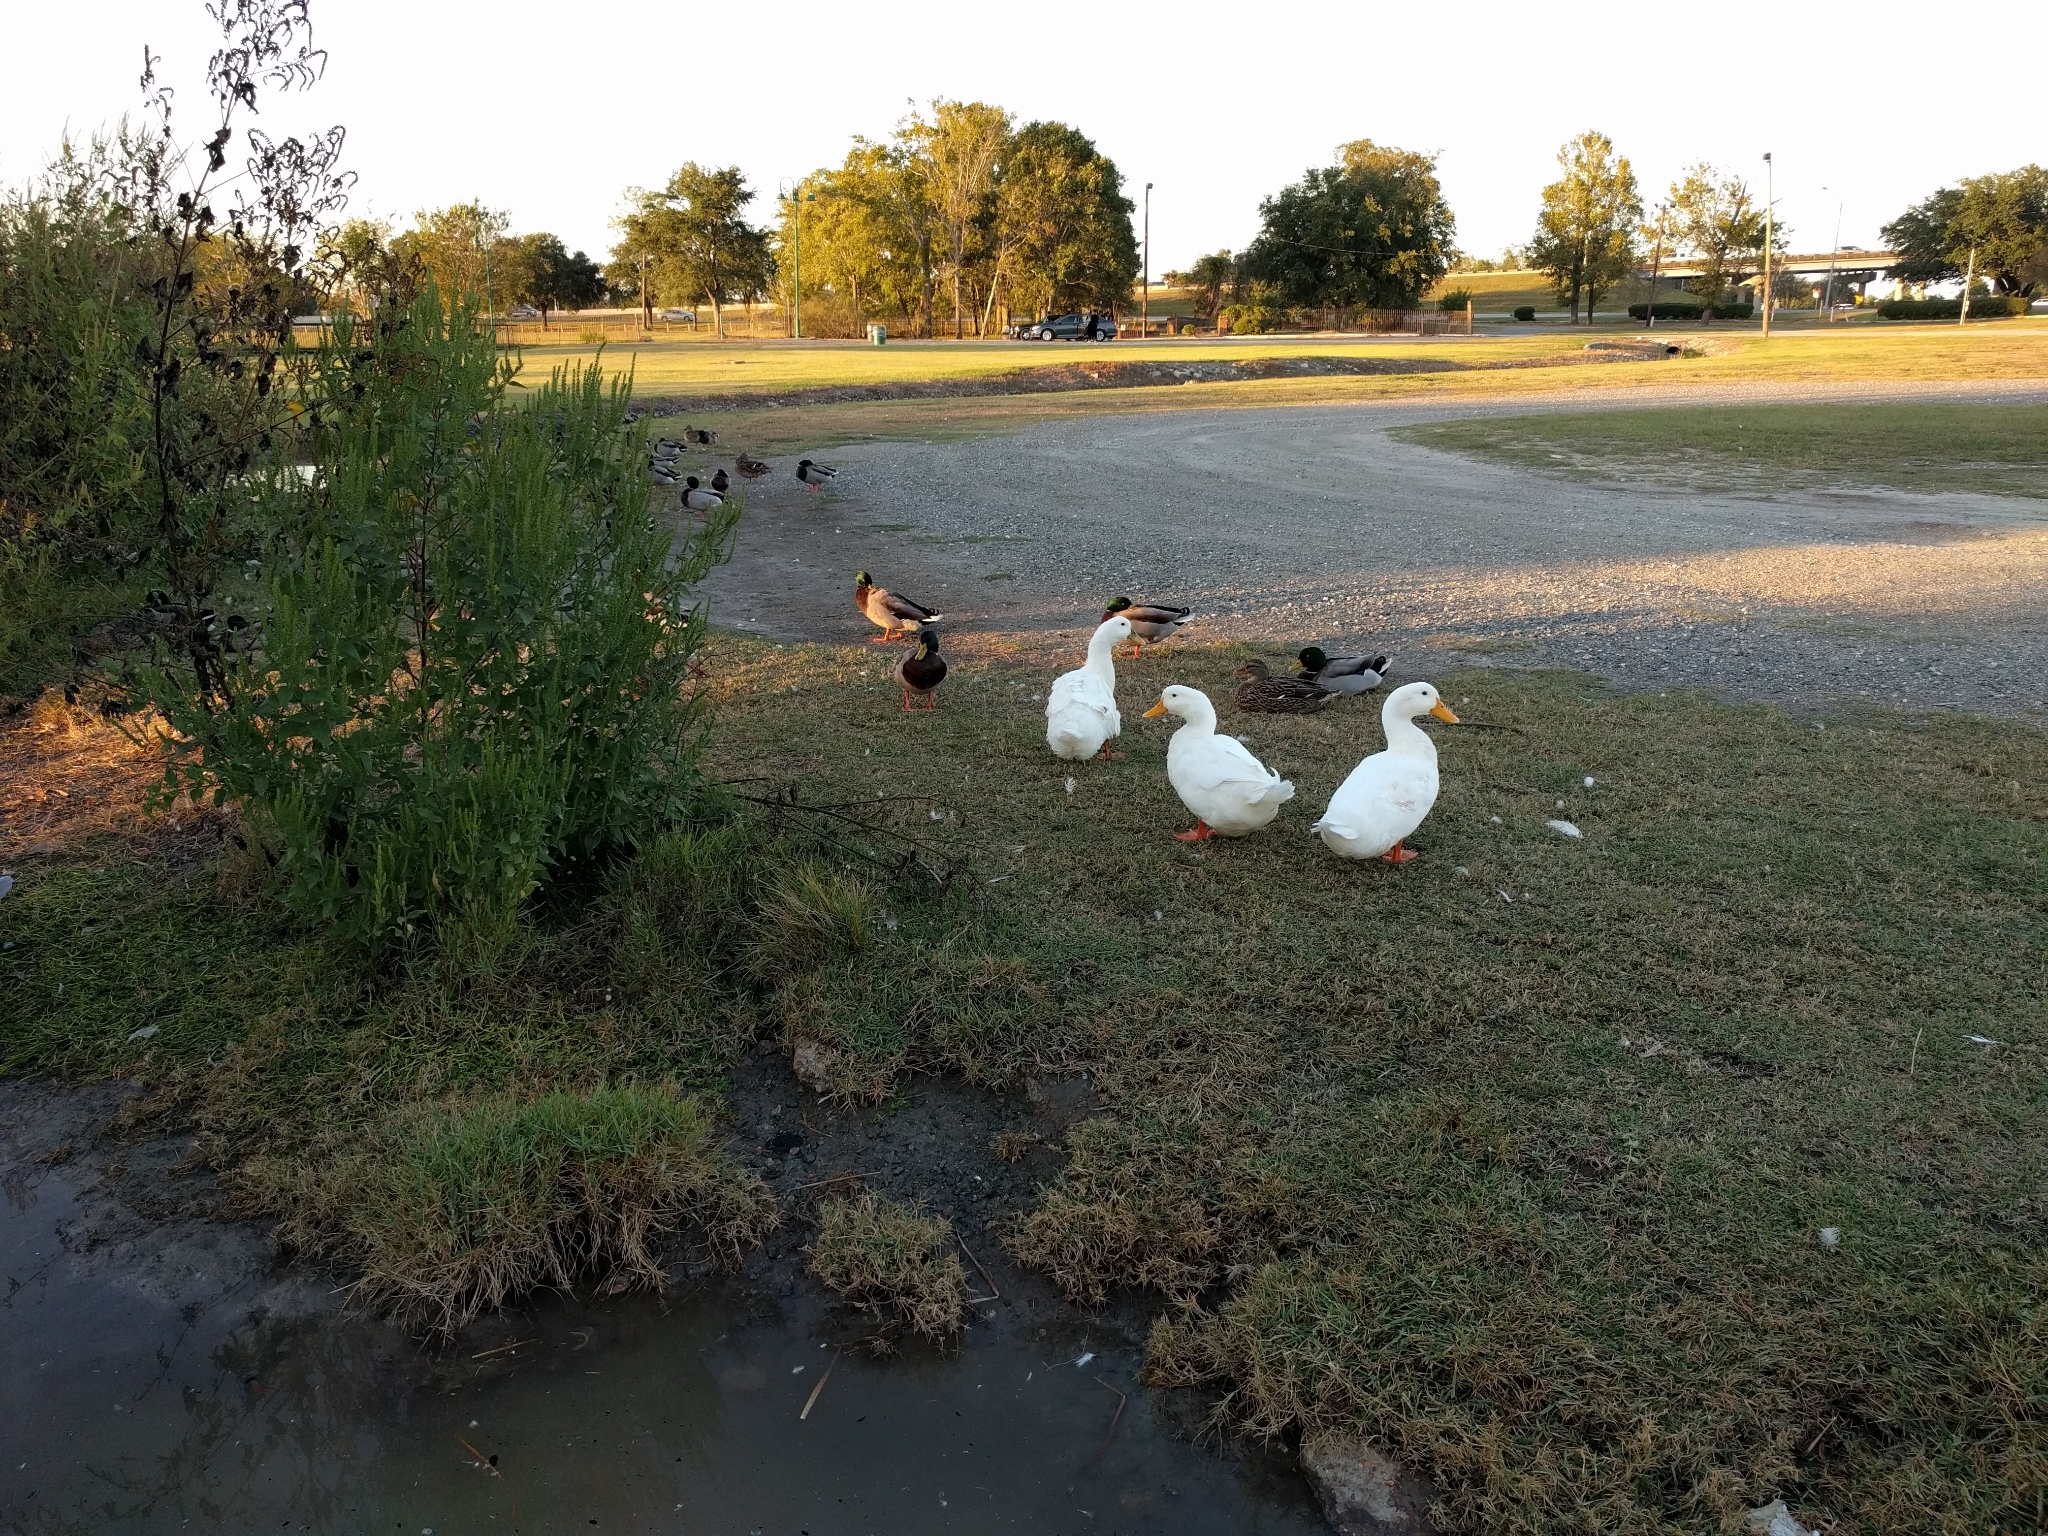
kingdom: Animalia
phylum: Chordata
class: Aves
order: Anseriformes
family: Anatidae
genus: Anas
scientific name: Anas platyrhynchos
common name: Mallard
